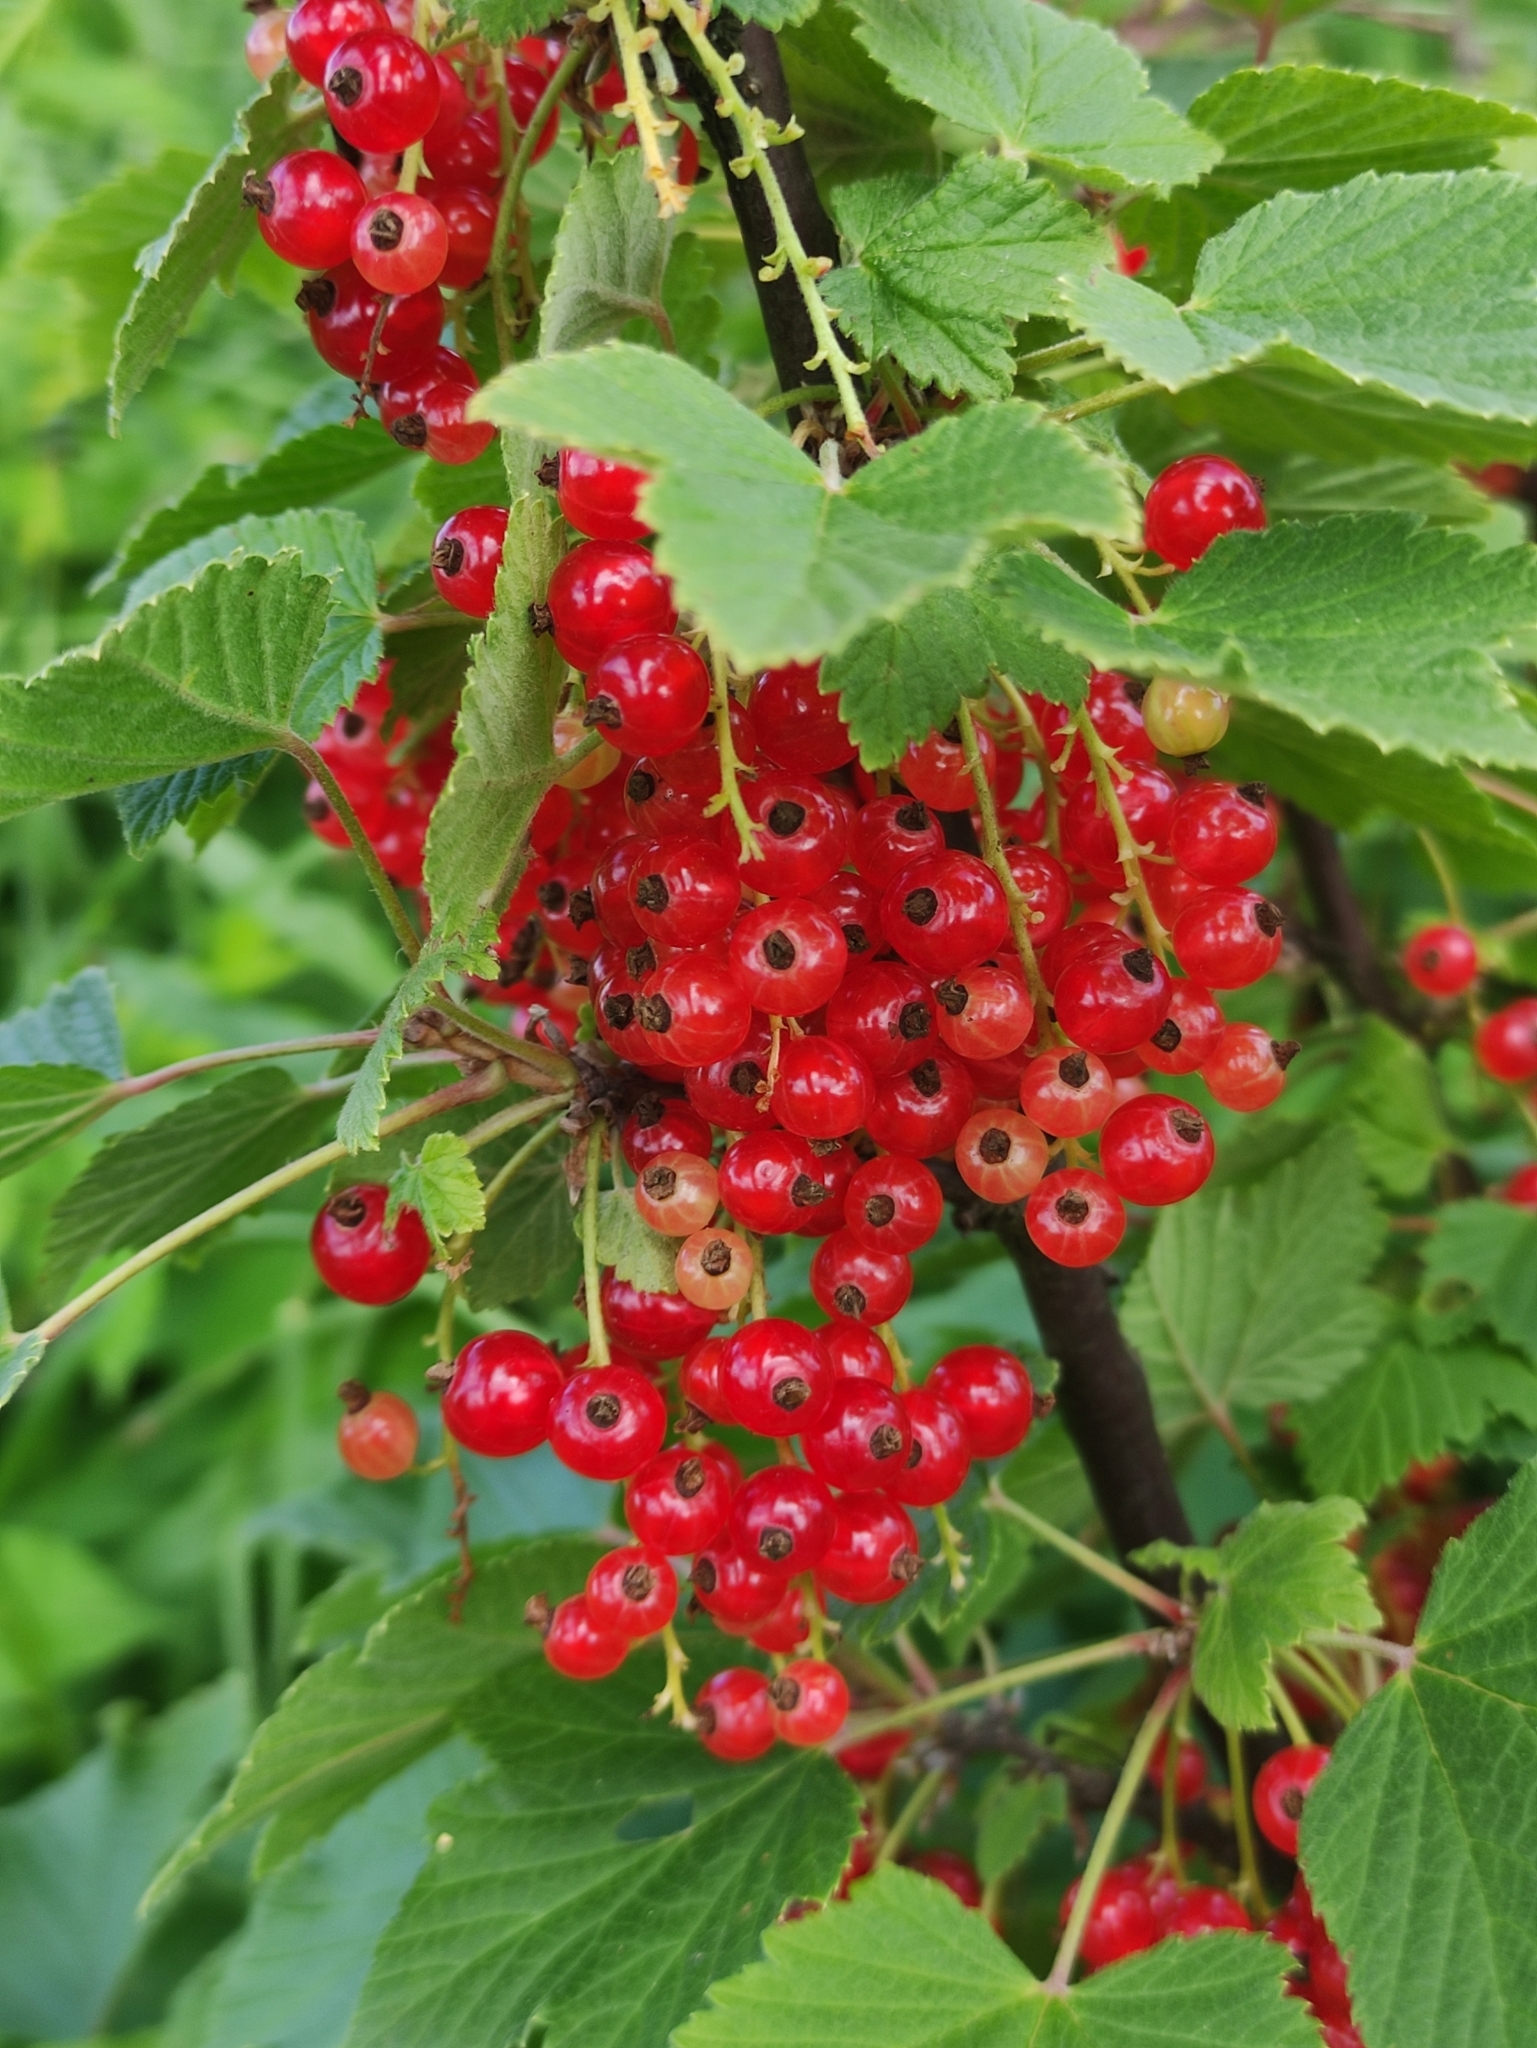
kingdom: Plantae
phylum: Tracheophyta
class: Magnoliopsida
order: Saxifragales
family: Grossulariaceae
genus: Ribes
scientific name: Ribes rubrum
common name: Red currant
